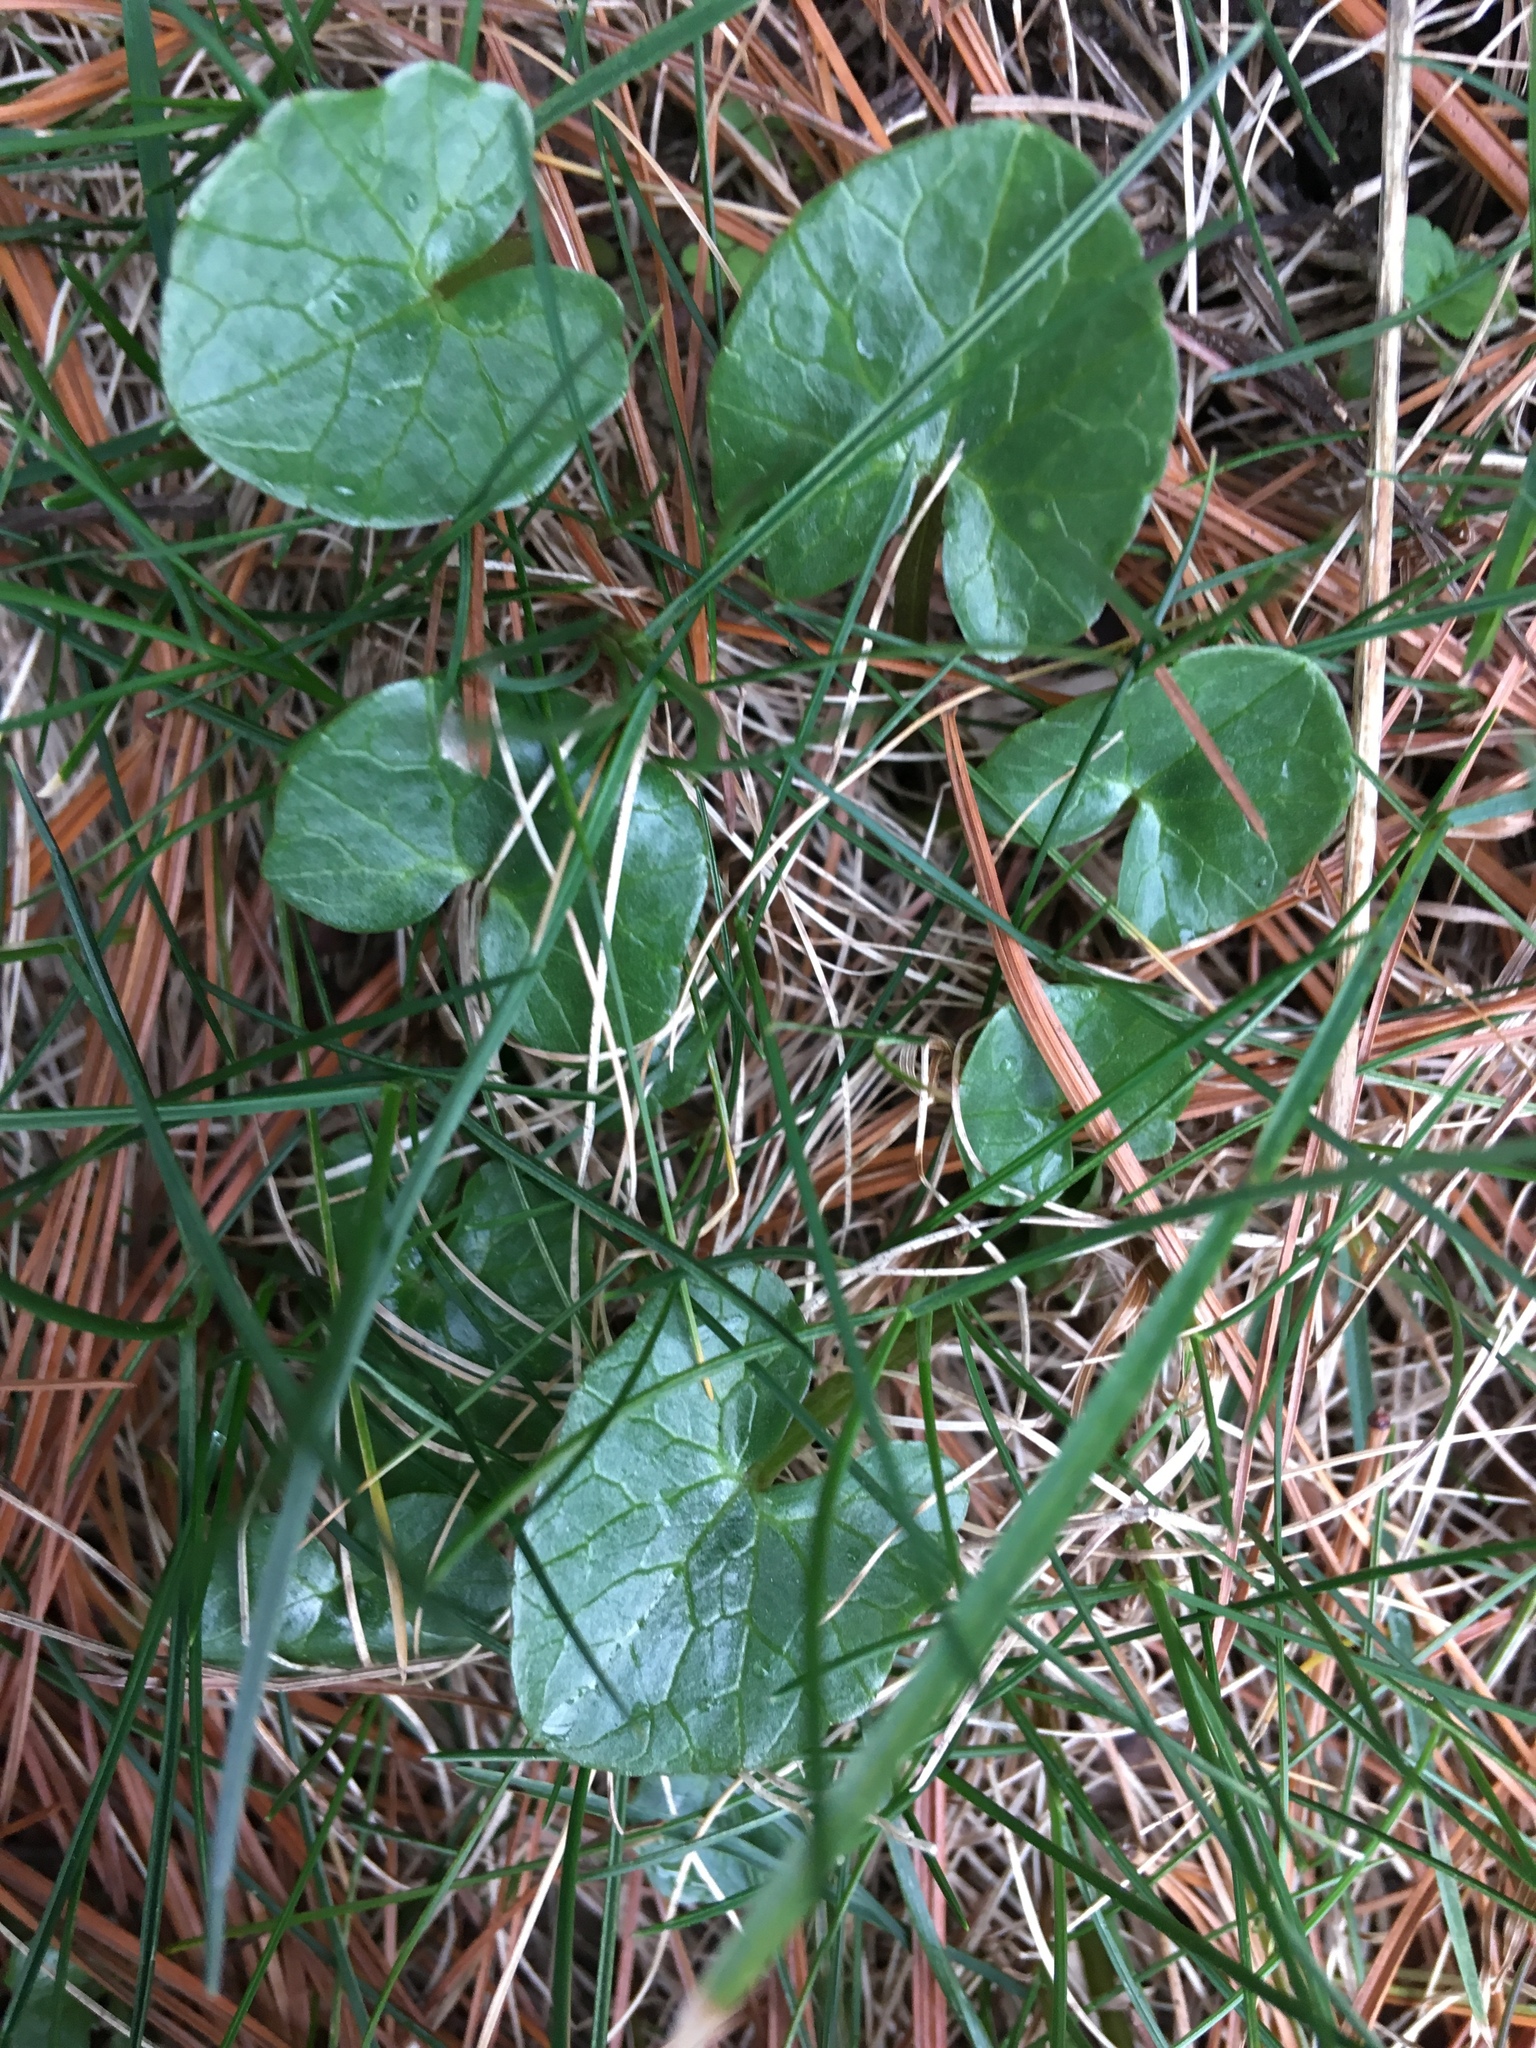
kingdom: Plantae
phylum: Tracheophyta
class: Magnoliopsida
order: Ranunculales
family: Ranunculaceae
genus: Ficaria
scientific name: Ficaria verna
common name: Lesser celandine
